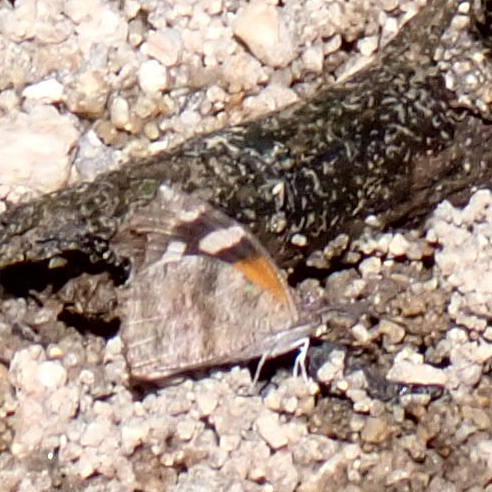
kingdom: Animalia
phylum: Arthropoda
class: Insecta
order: Lepidoptera
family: Nymphalidae
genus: Libytheana
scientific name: Libytheana carinenta
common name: American snout
